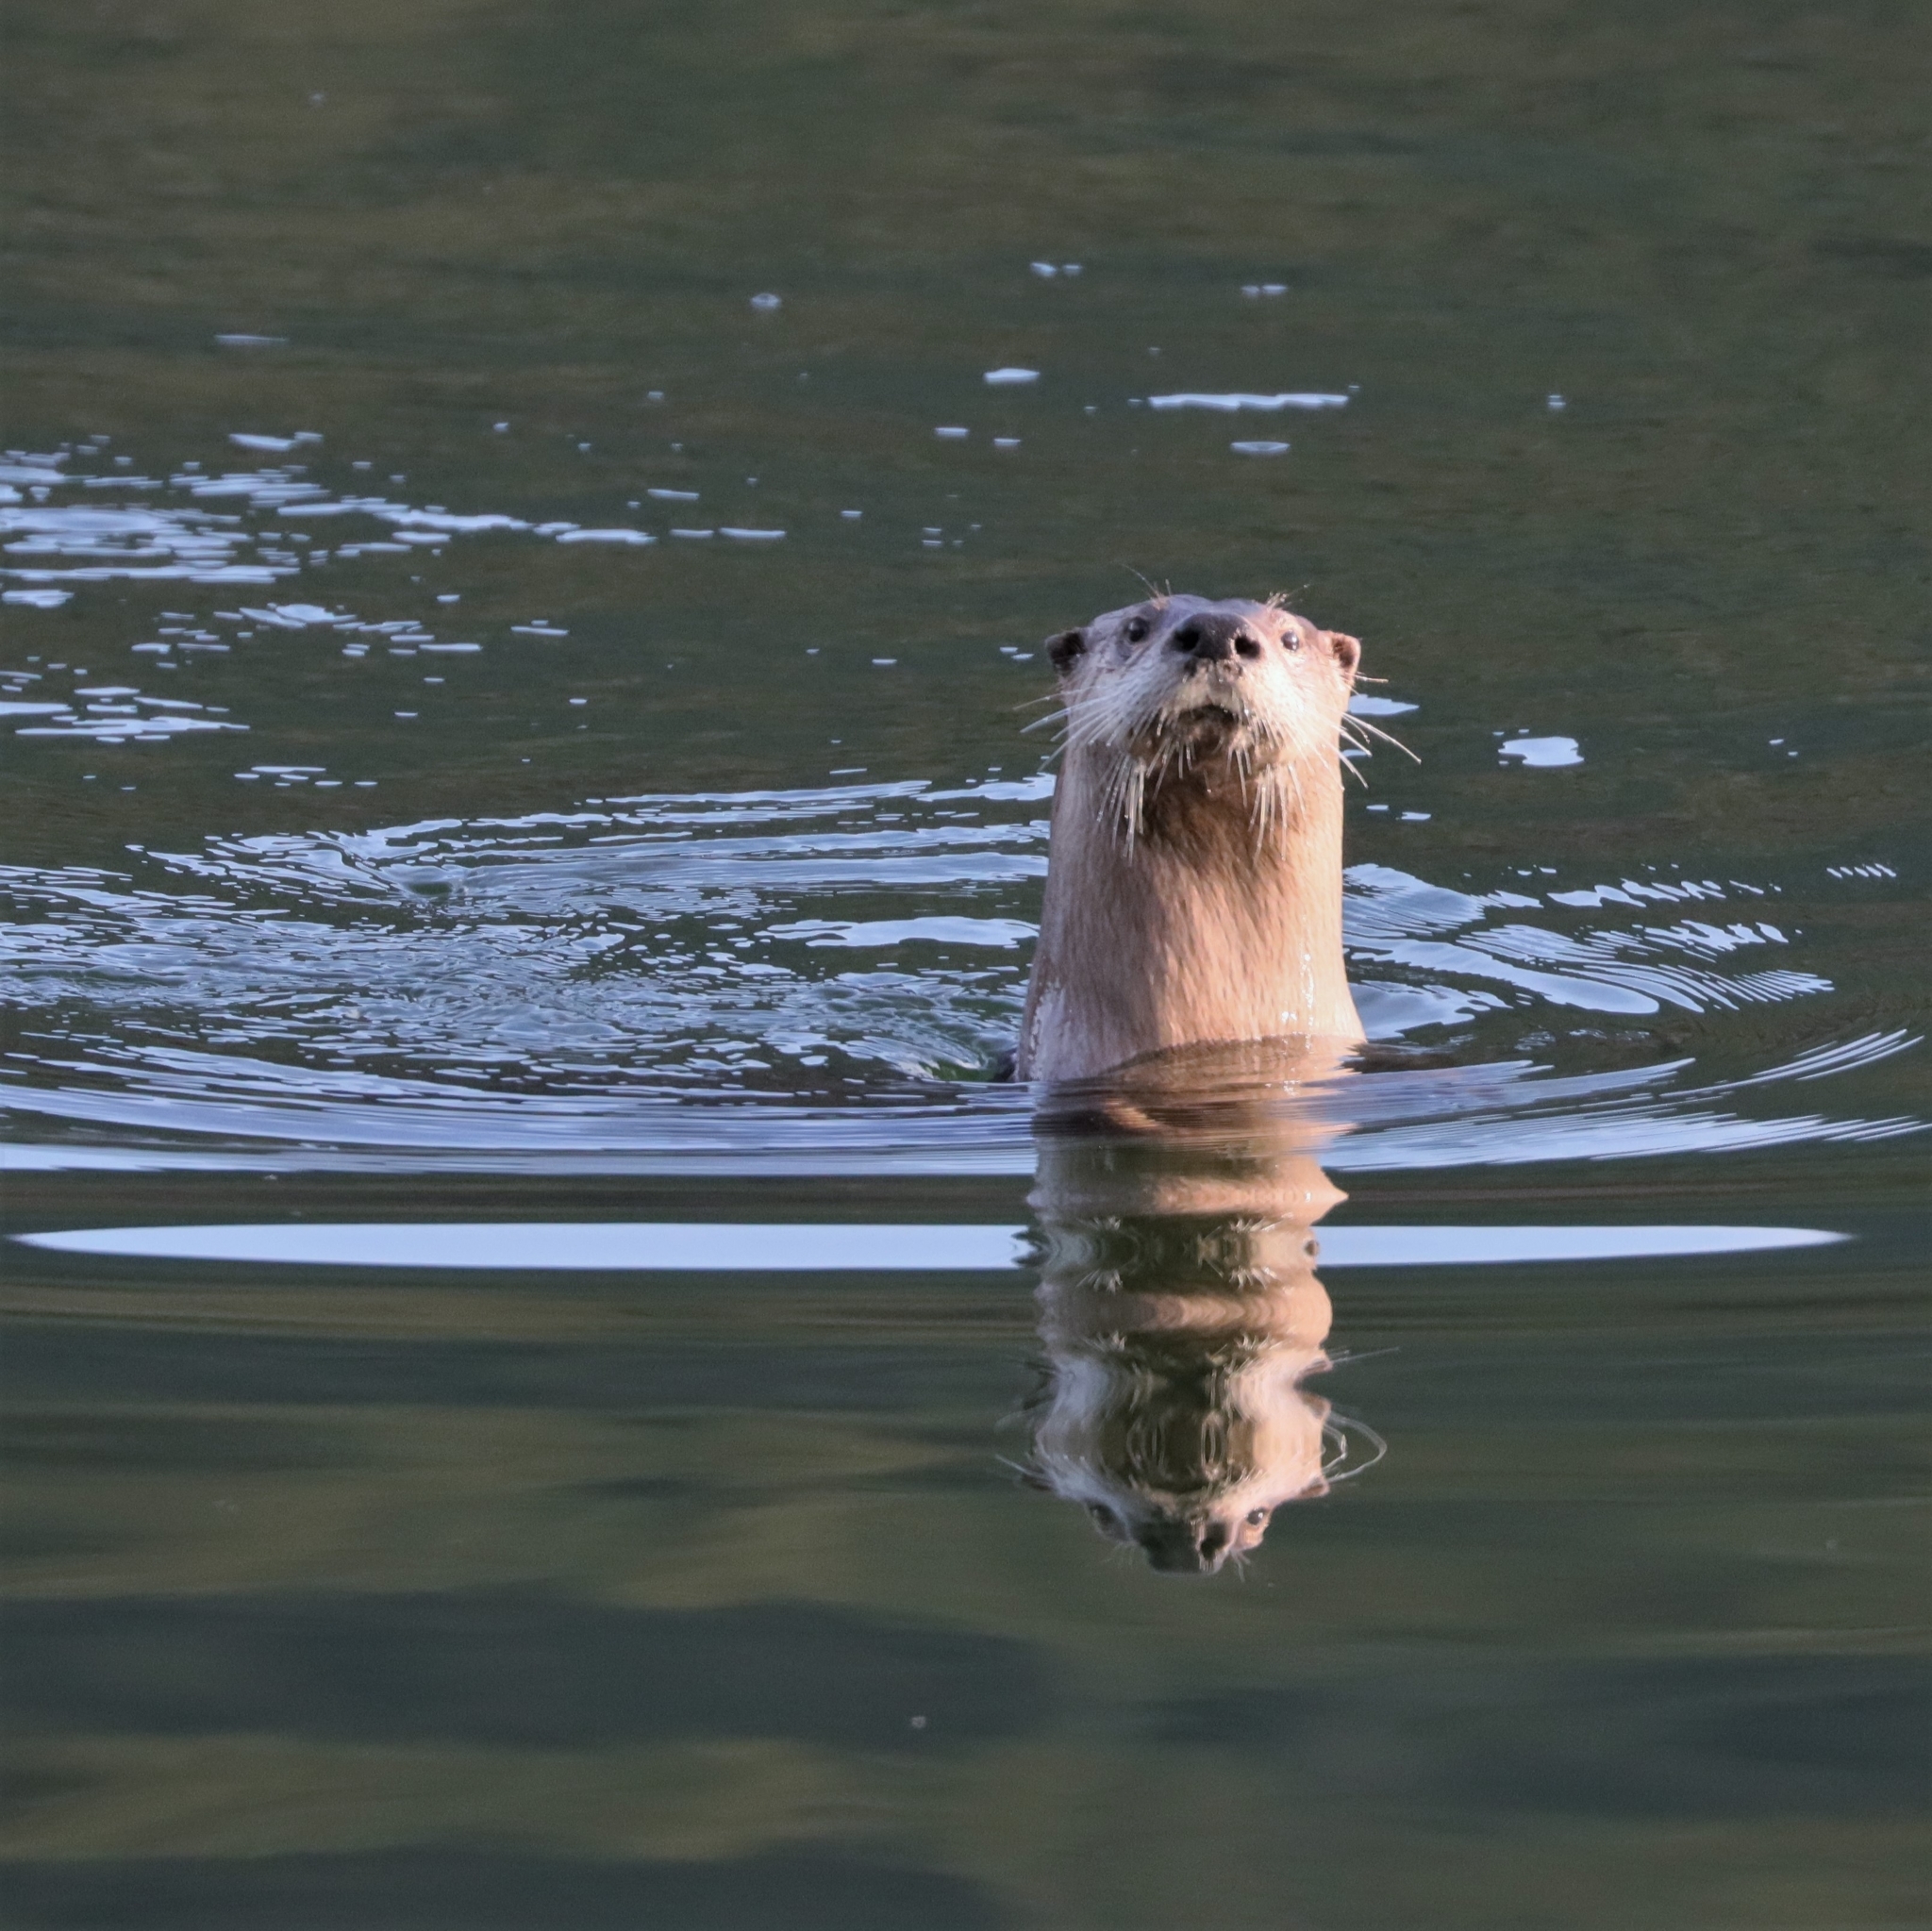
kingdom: Animalia
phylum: Chordata
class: Mammalia
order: Carnivora
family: Mustelidae
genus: Lontra
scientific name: Lontra canadensis
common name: North american river otter
